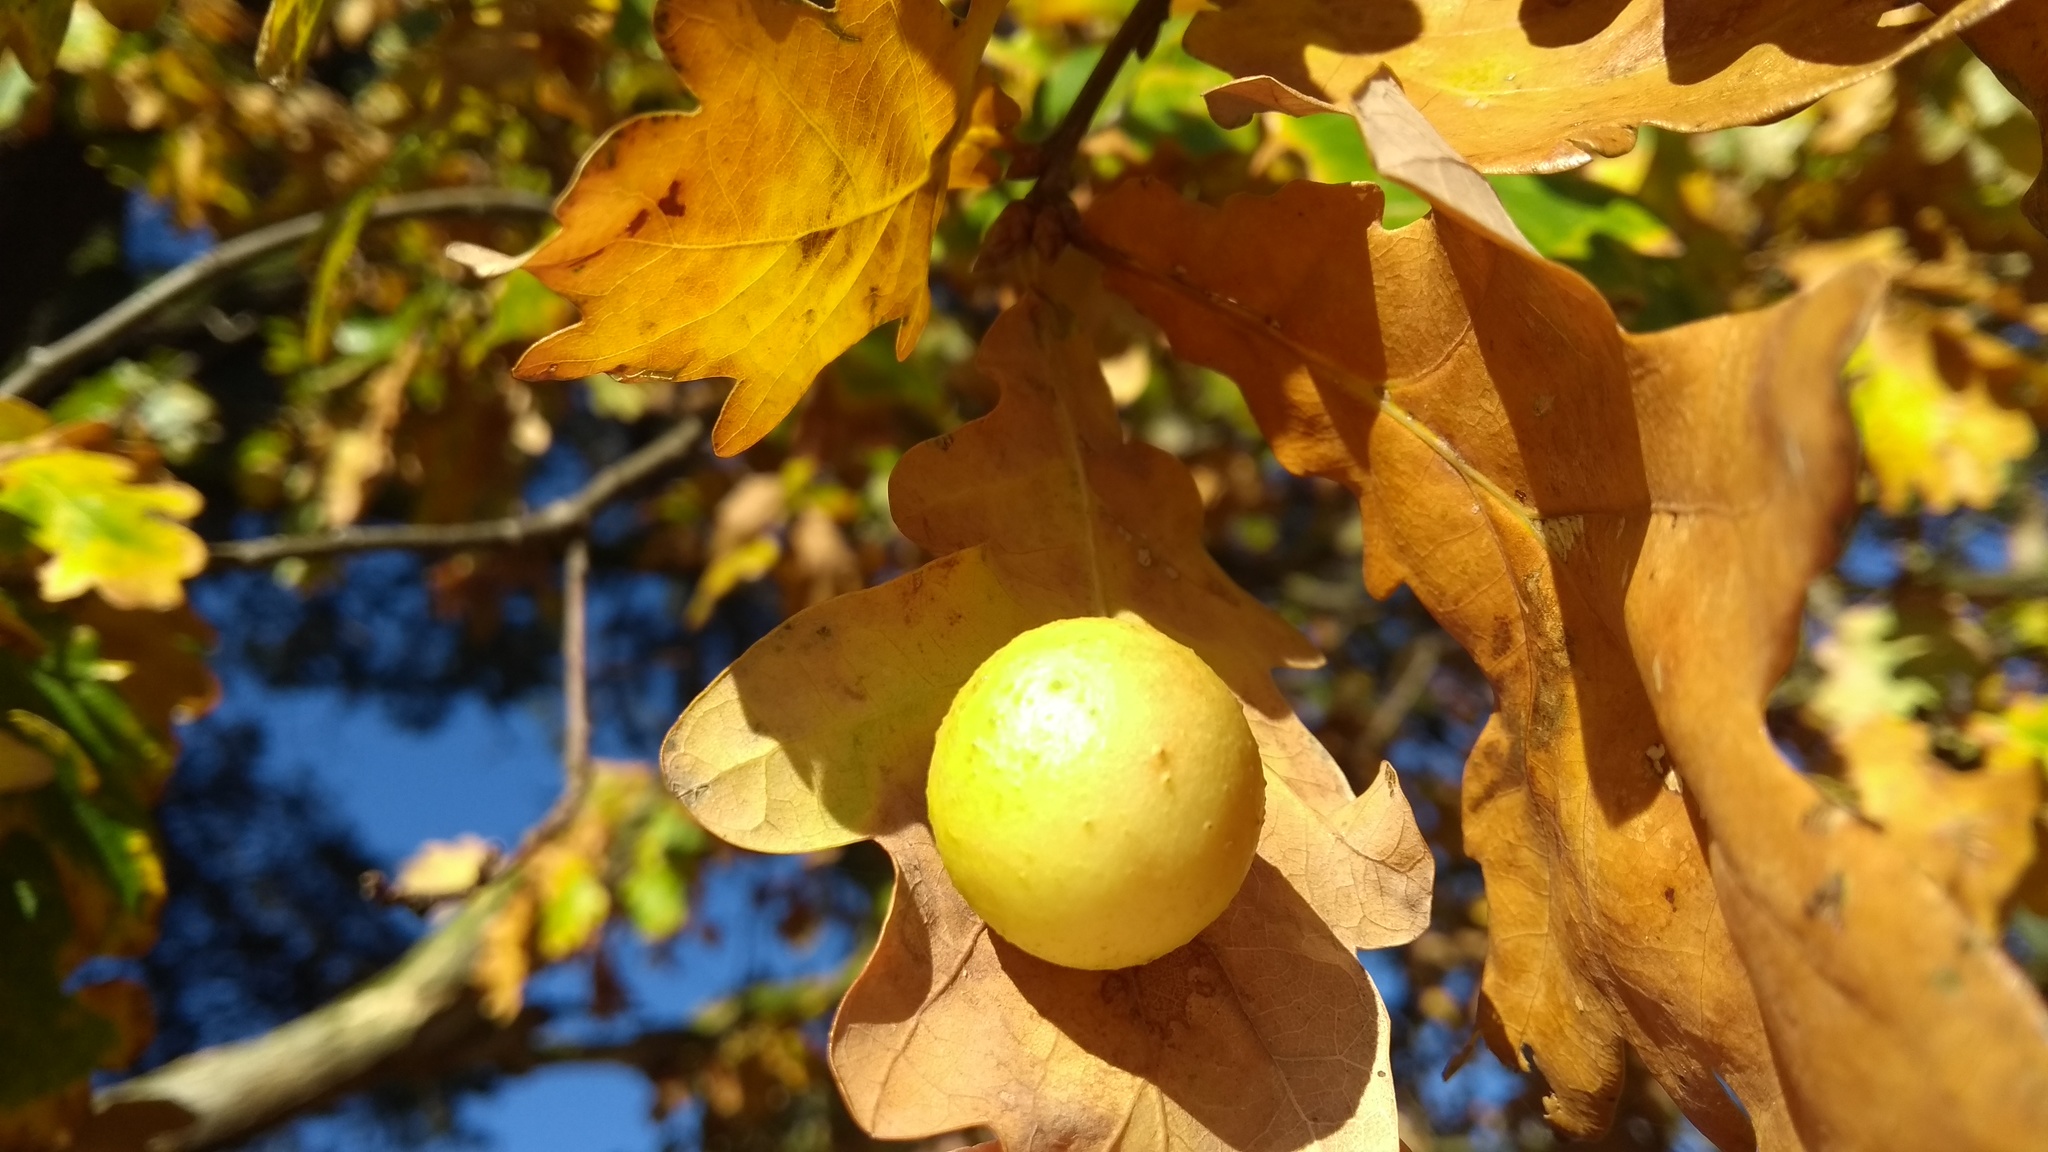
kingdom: Animalia
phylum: Arthropoda
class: Insecta
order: Hymenoptera
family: Cynipidae
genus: Cynips
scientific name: Cynips quercusfolii
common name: Cherry gall
